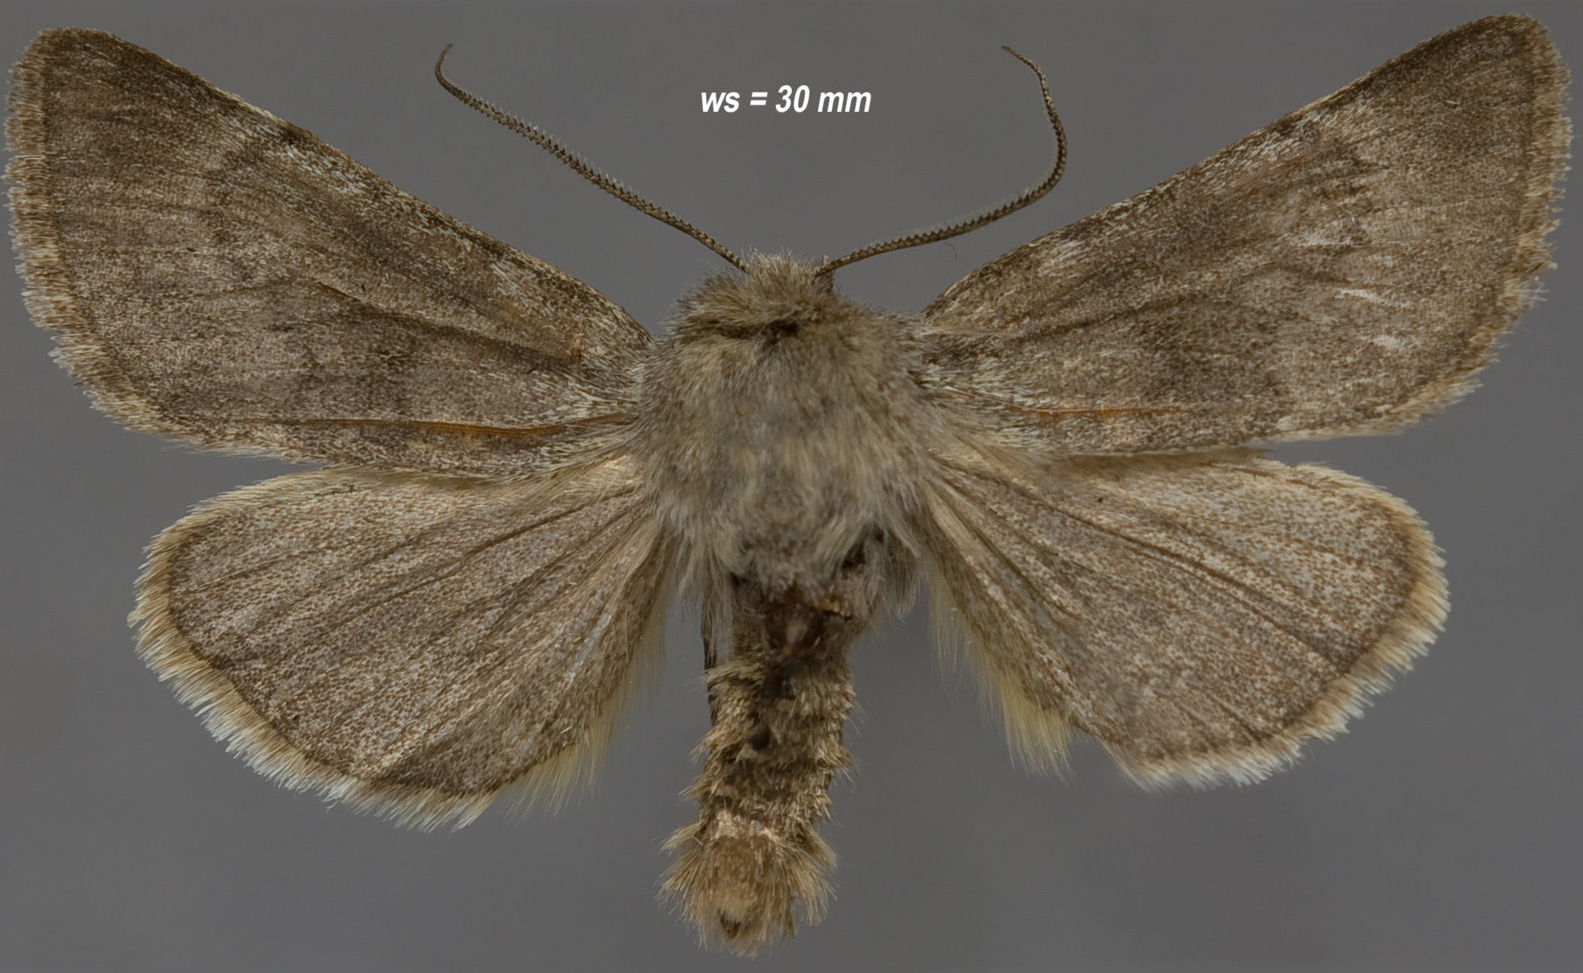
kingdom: Animalia
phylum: Arthropoda
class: Insecta
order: Lepidoptera
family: Noctuidae
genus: Lasionycta
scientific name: Lasionycta uniformis
